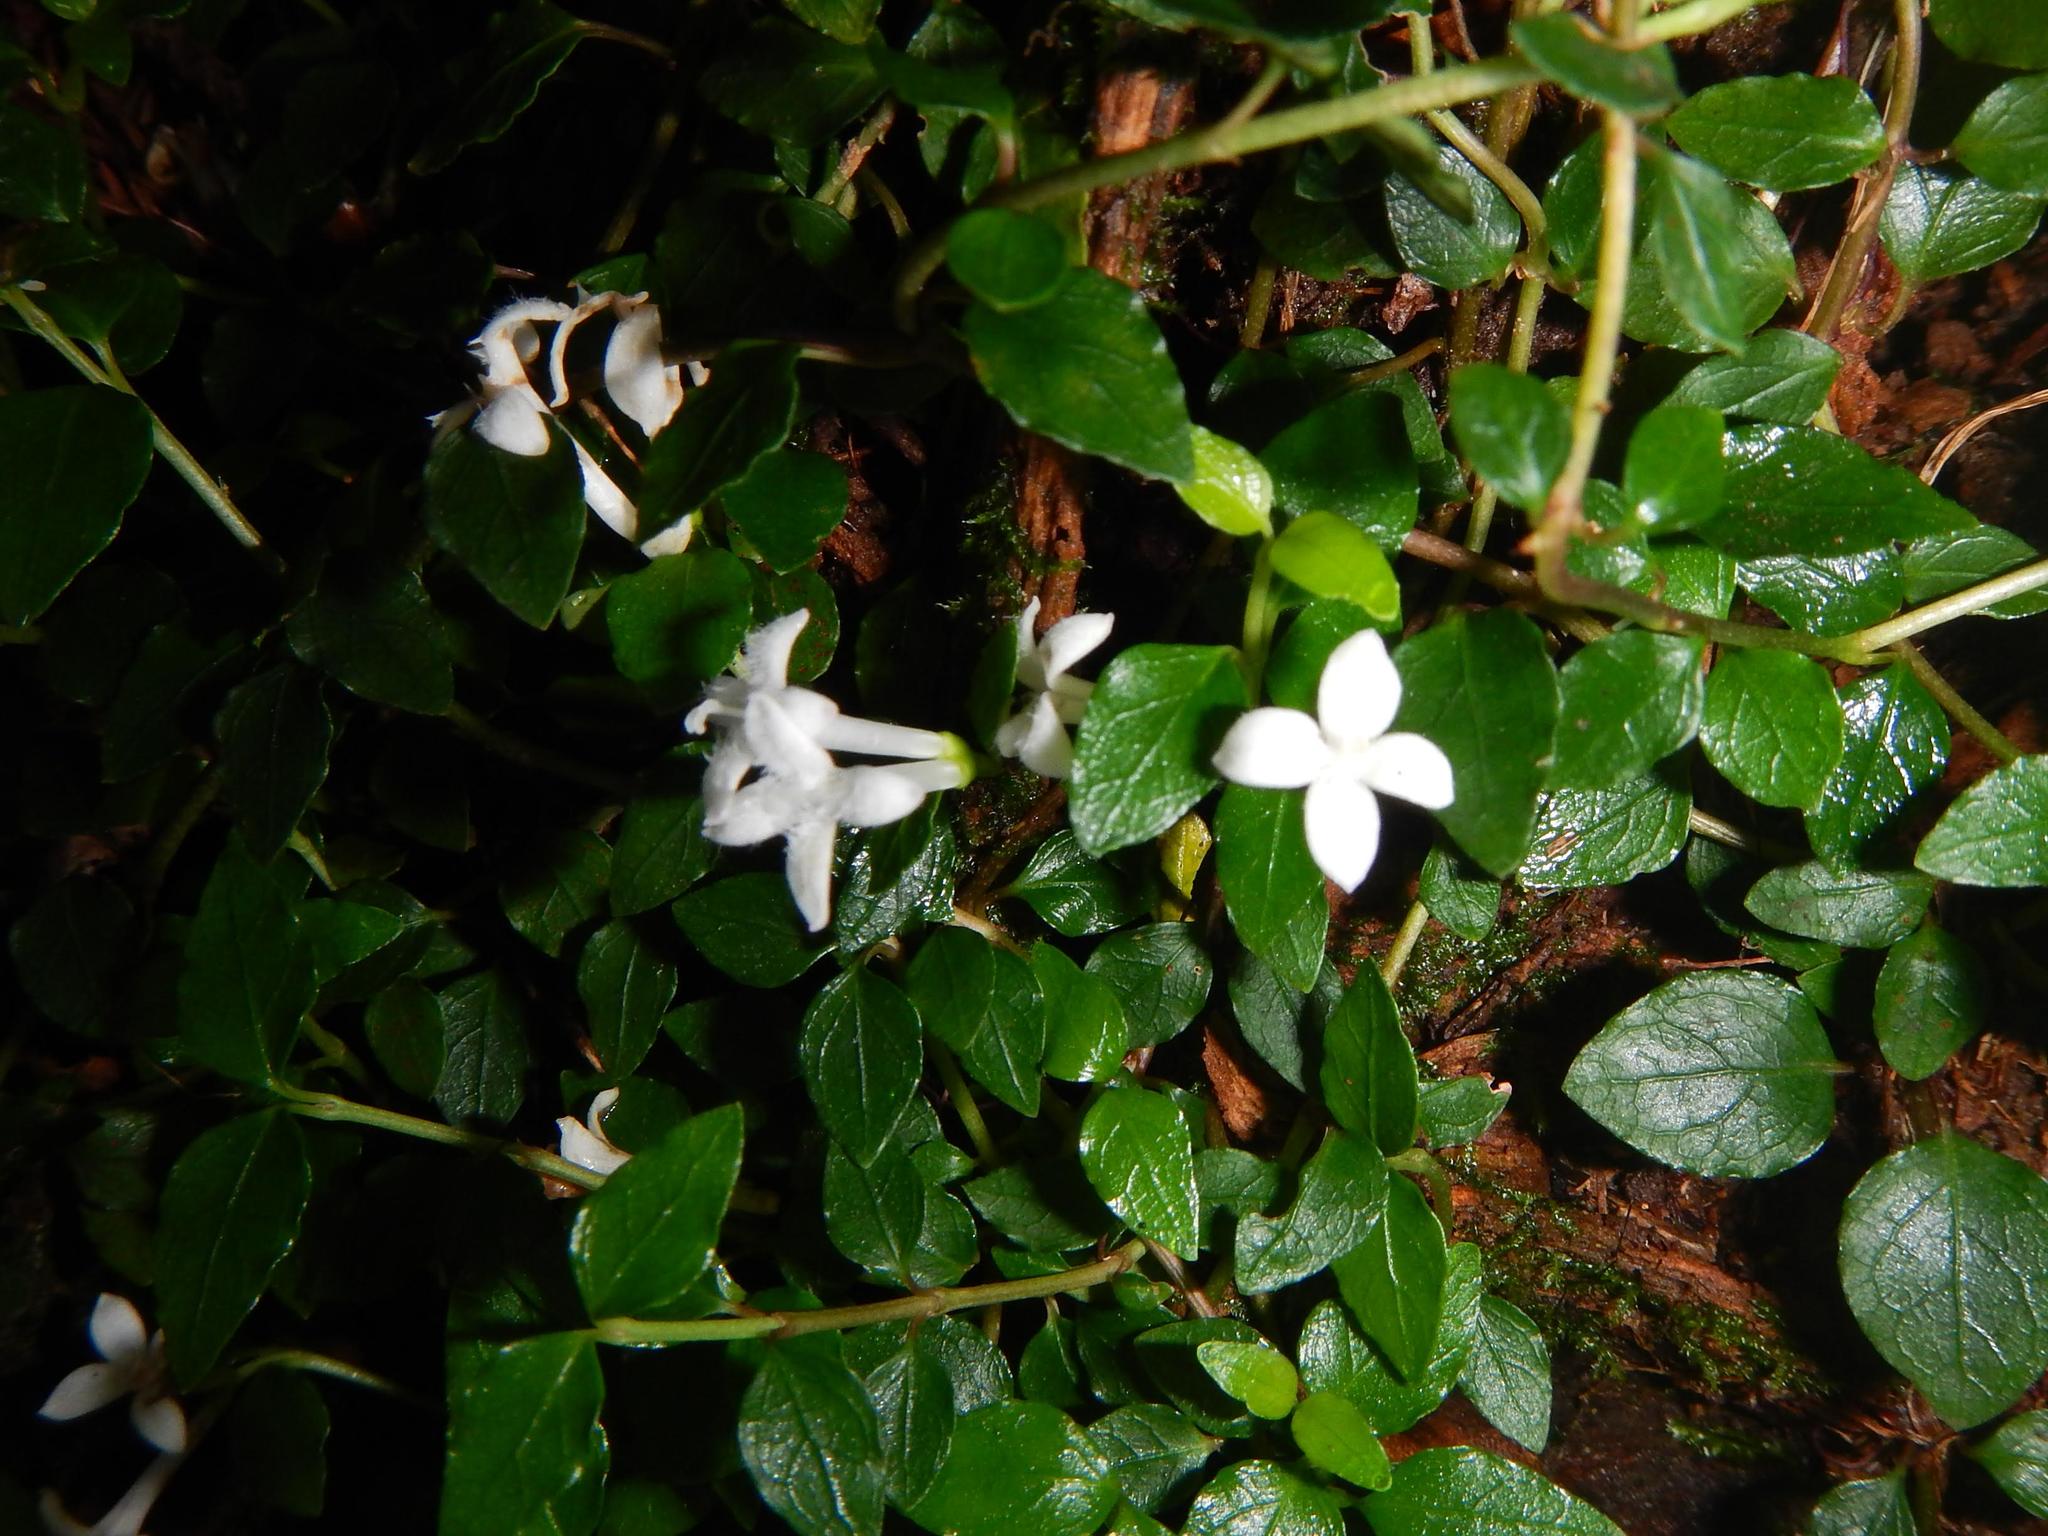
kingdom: Plantae
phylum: Tracheophyta
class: Magnoliopsida
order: Gentianales
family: Rubiaceae
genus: Mitchella
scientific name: Mitchella undulata
